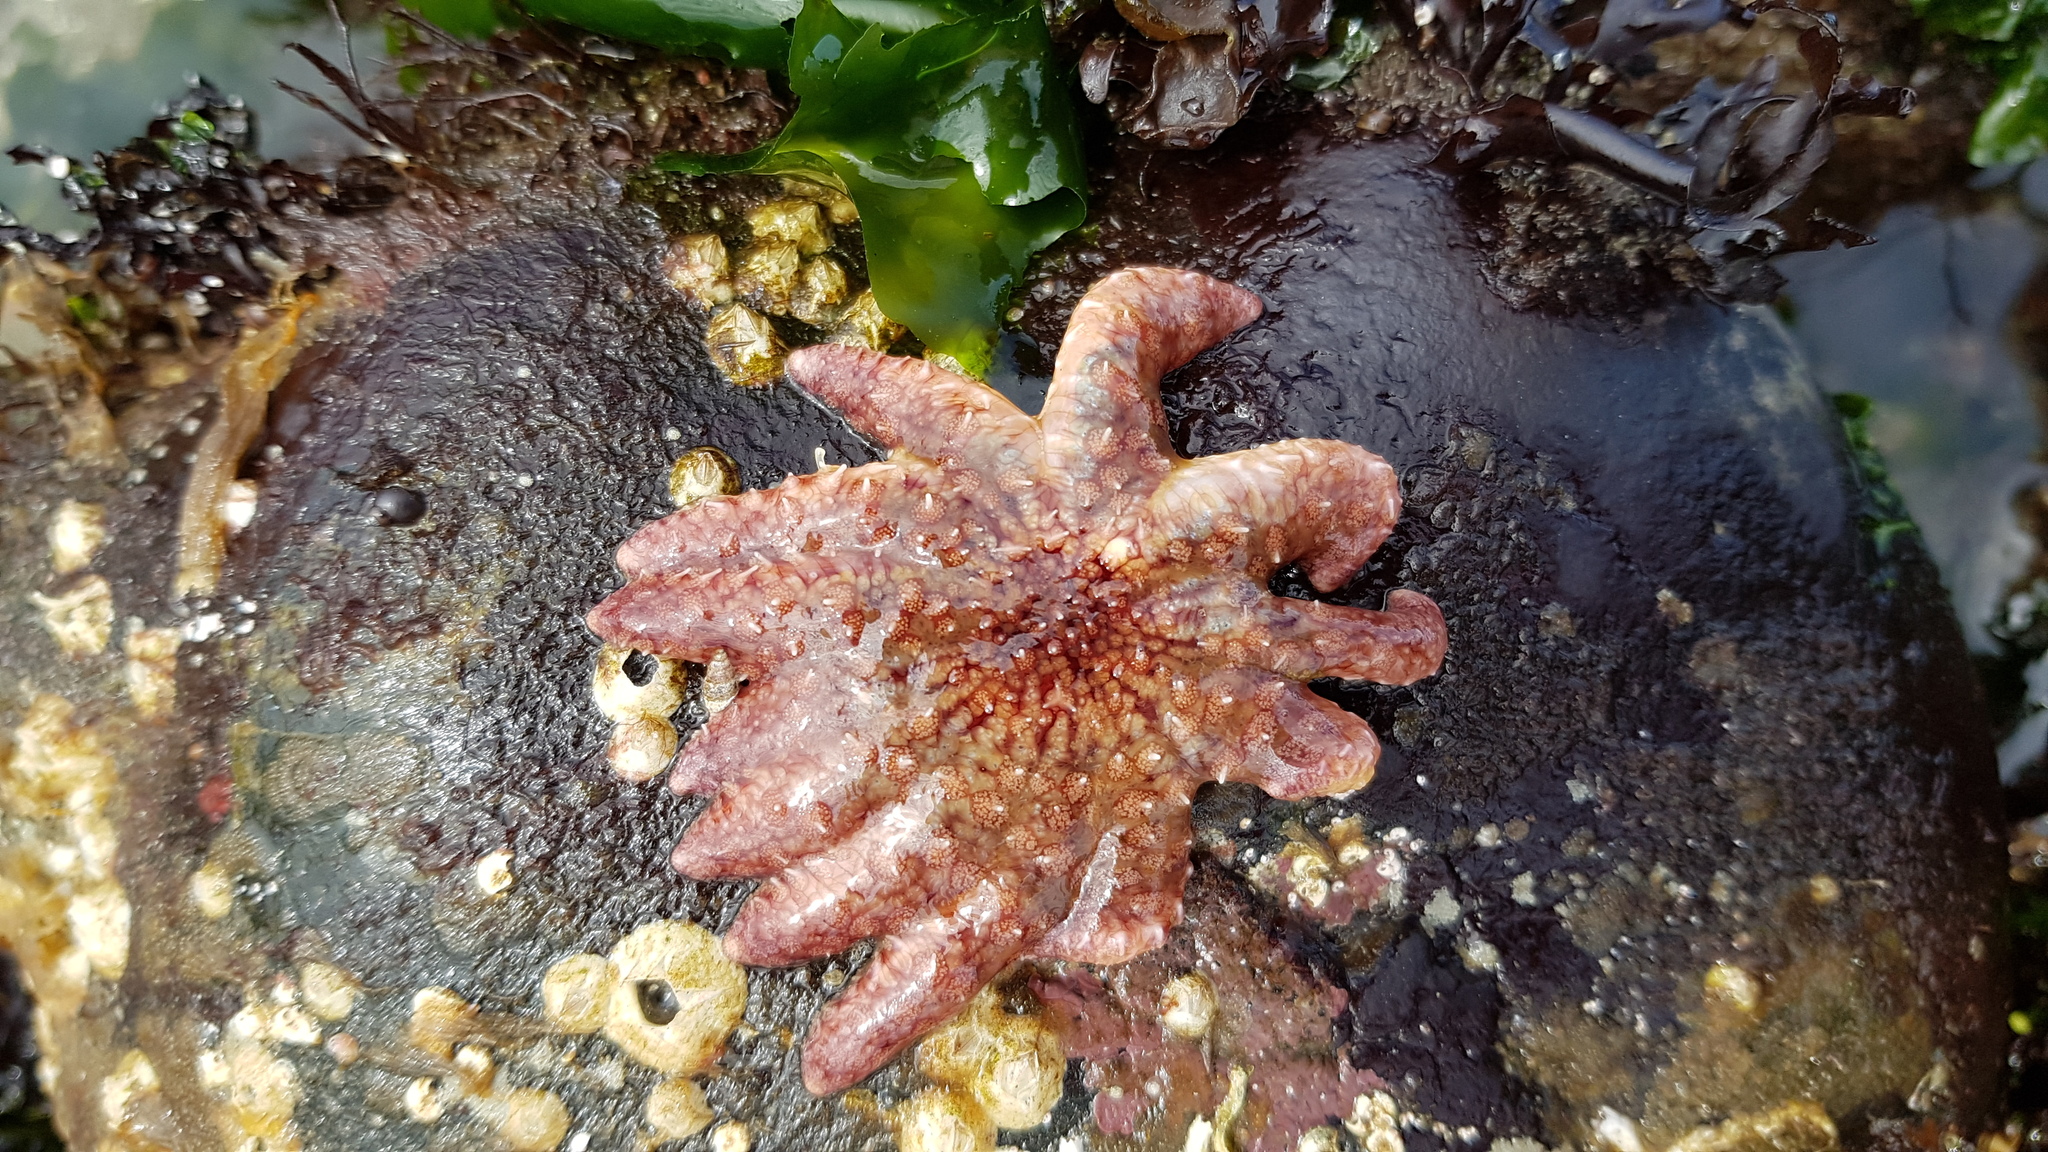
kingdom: Animalia
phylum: Echinodermata
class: Asteroidea
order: Forcipulatida
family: Asteriidae
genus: Pycnopodia
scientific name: Pycnopodia helianthoides
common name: Rag mop
